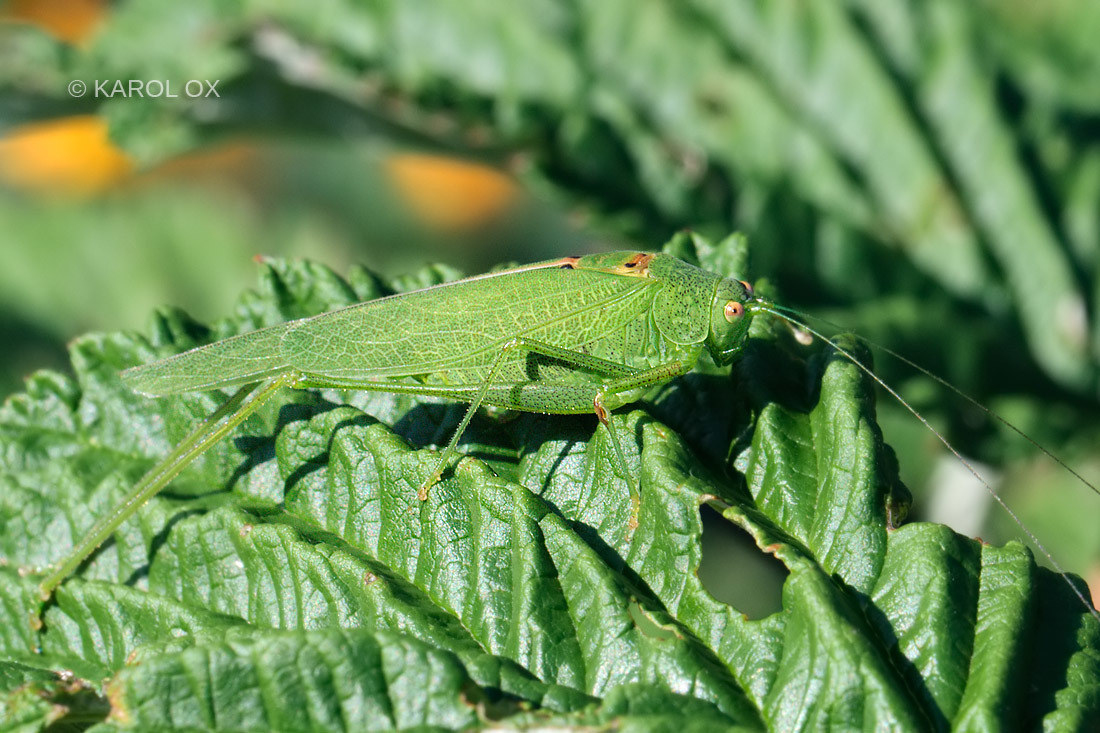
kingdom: Animalia
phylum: Arthropoda
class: Insecta
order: Orthoptera
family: Tettigoniidae
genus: Phaneroptera
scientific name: Phaneroptera nana
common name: Southern sickle bush-cricket
